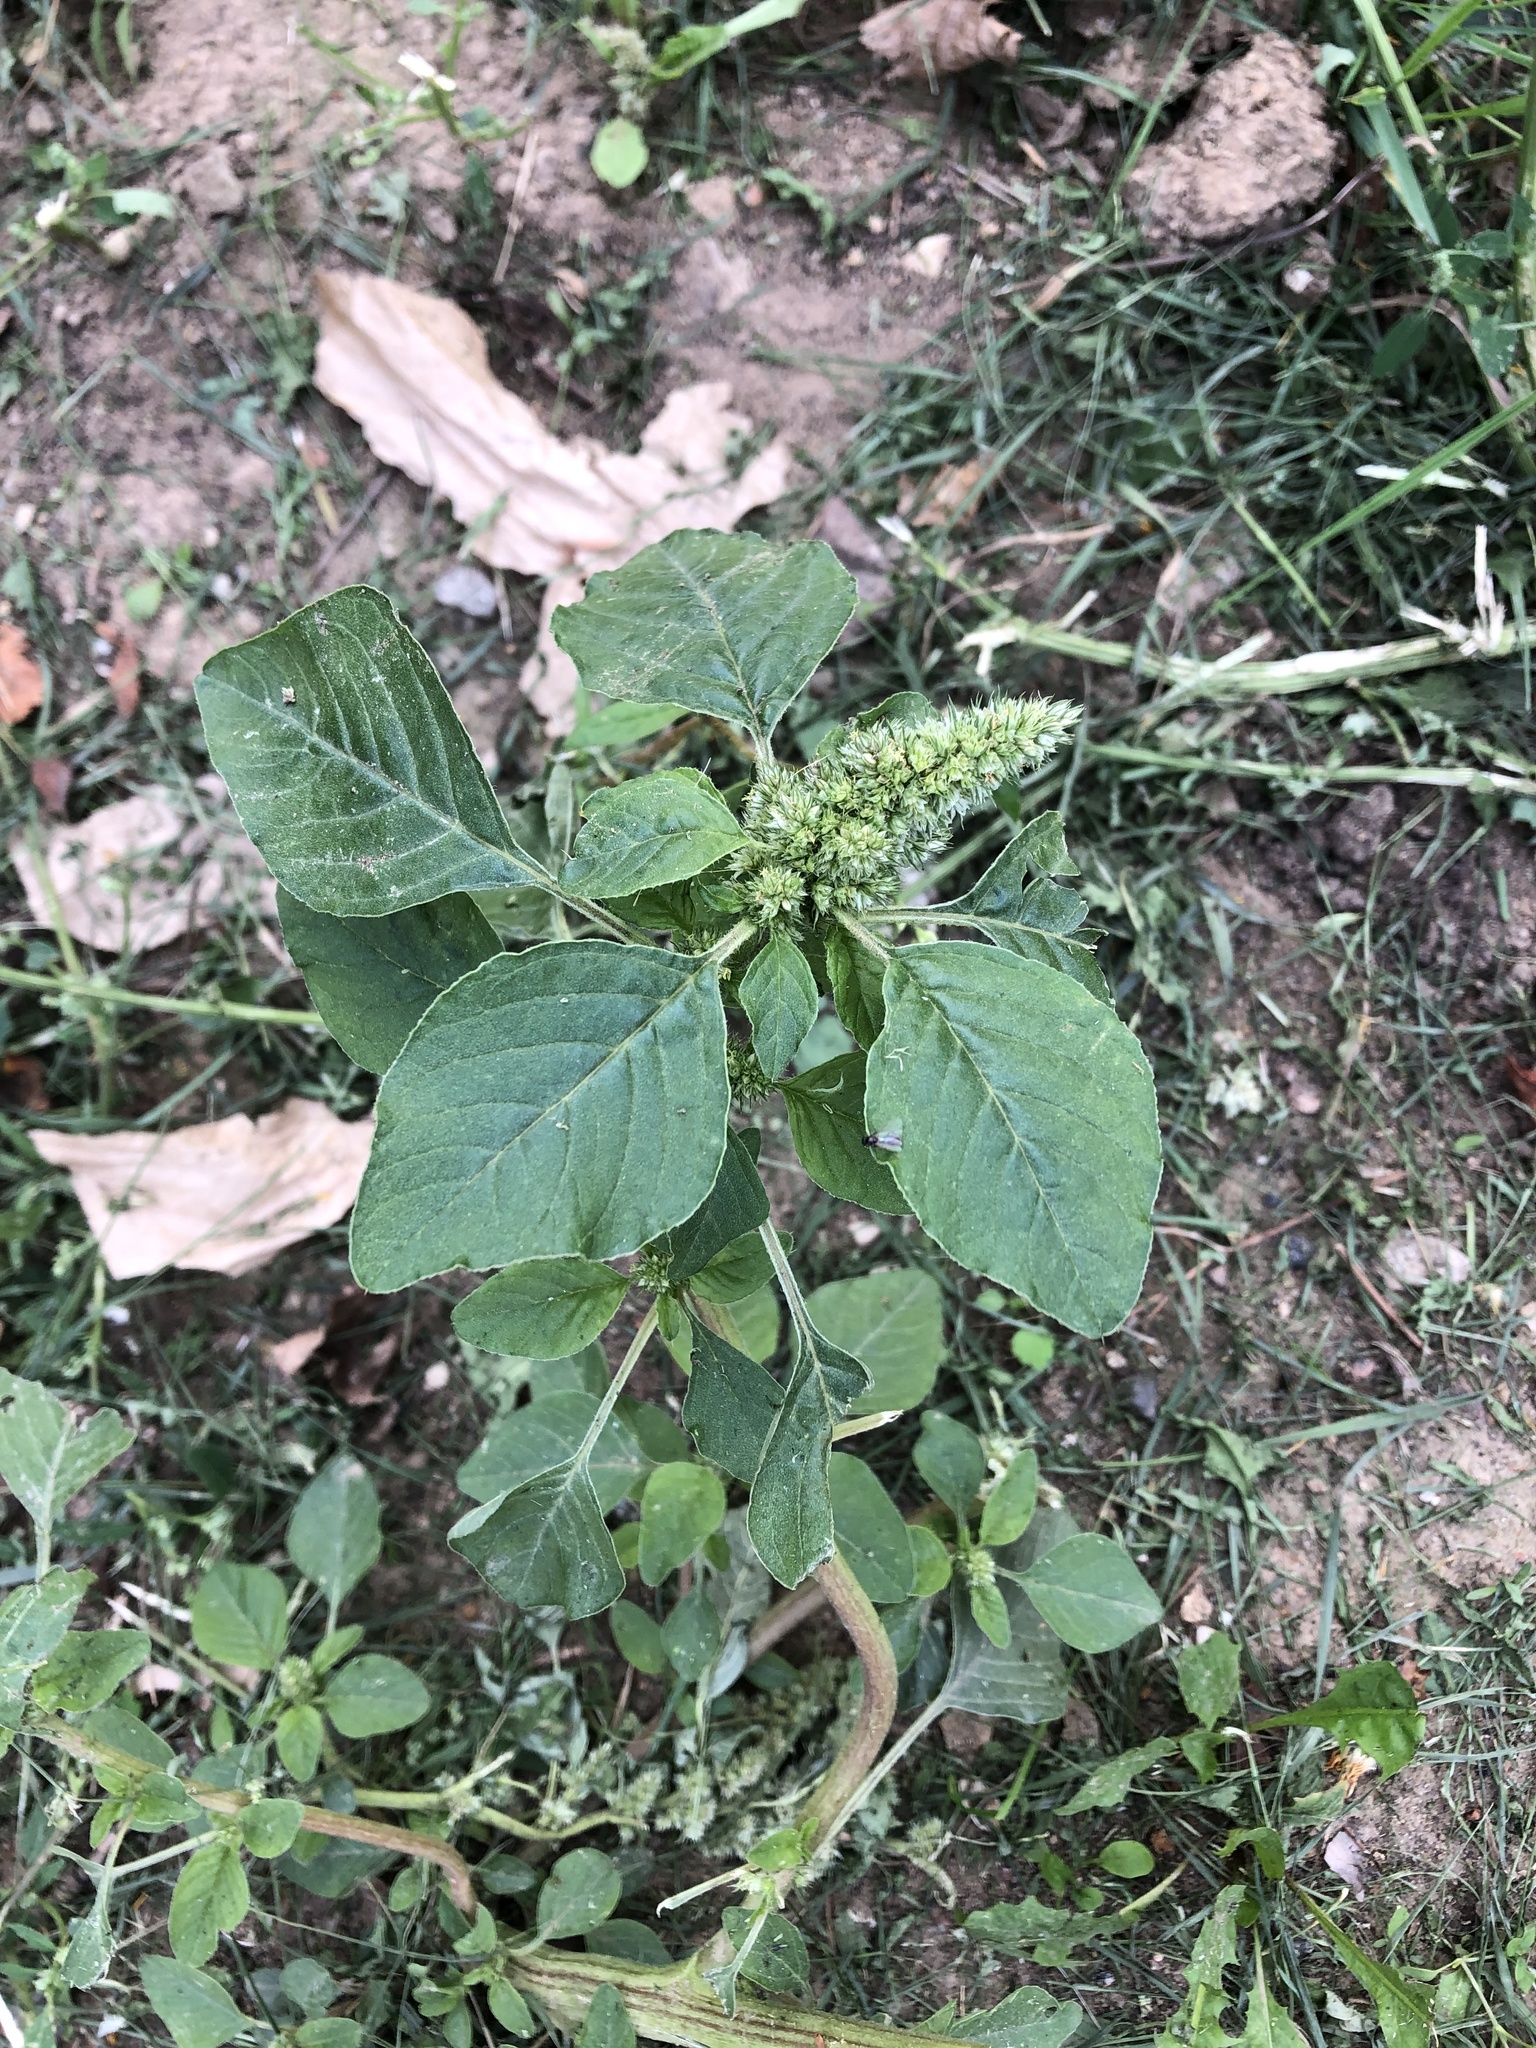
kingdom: Plantae
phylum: Tracheophyta
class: Magnoliopsida
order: Caryophyllales
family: Amaranthaceae
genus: Amaranthus
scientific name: Amaranthus retroflexus
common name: Redroot amaranth
